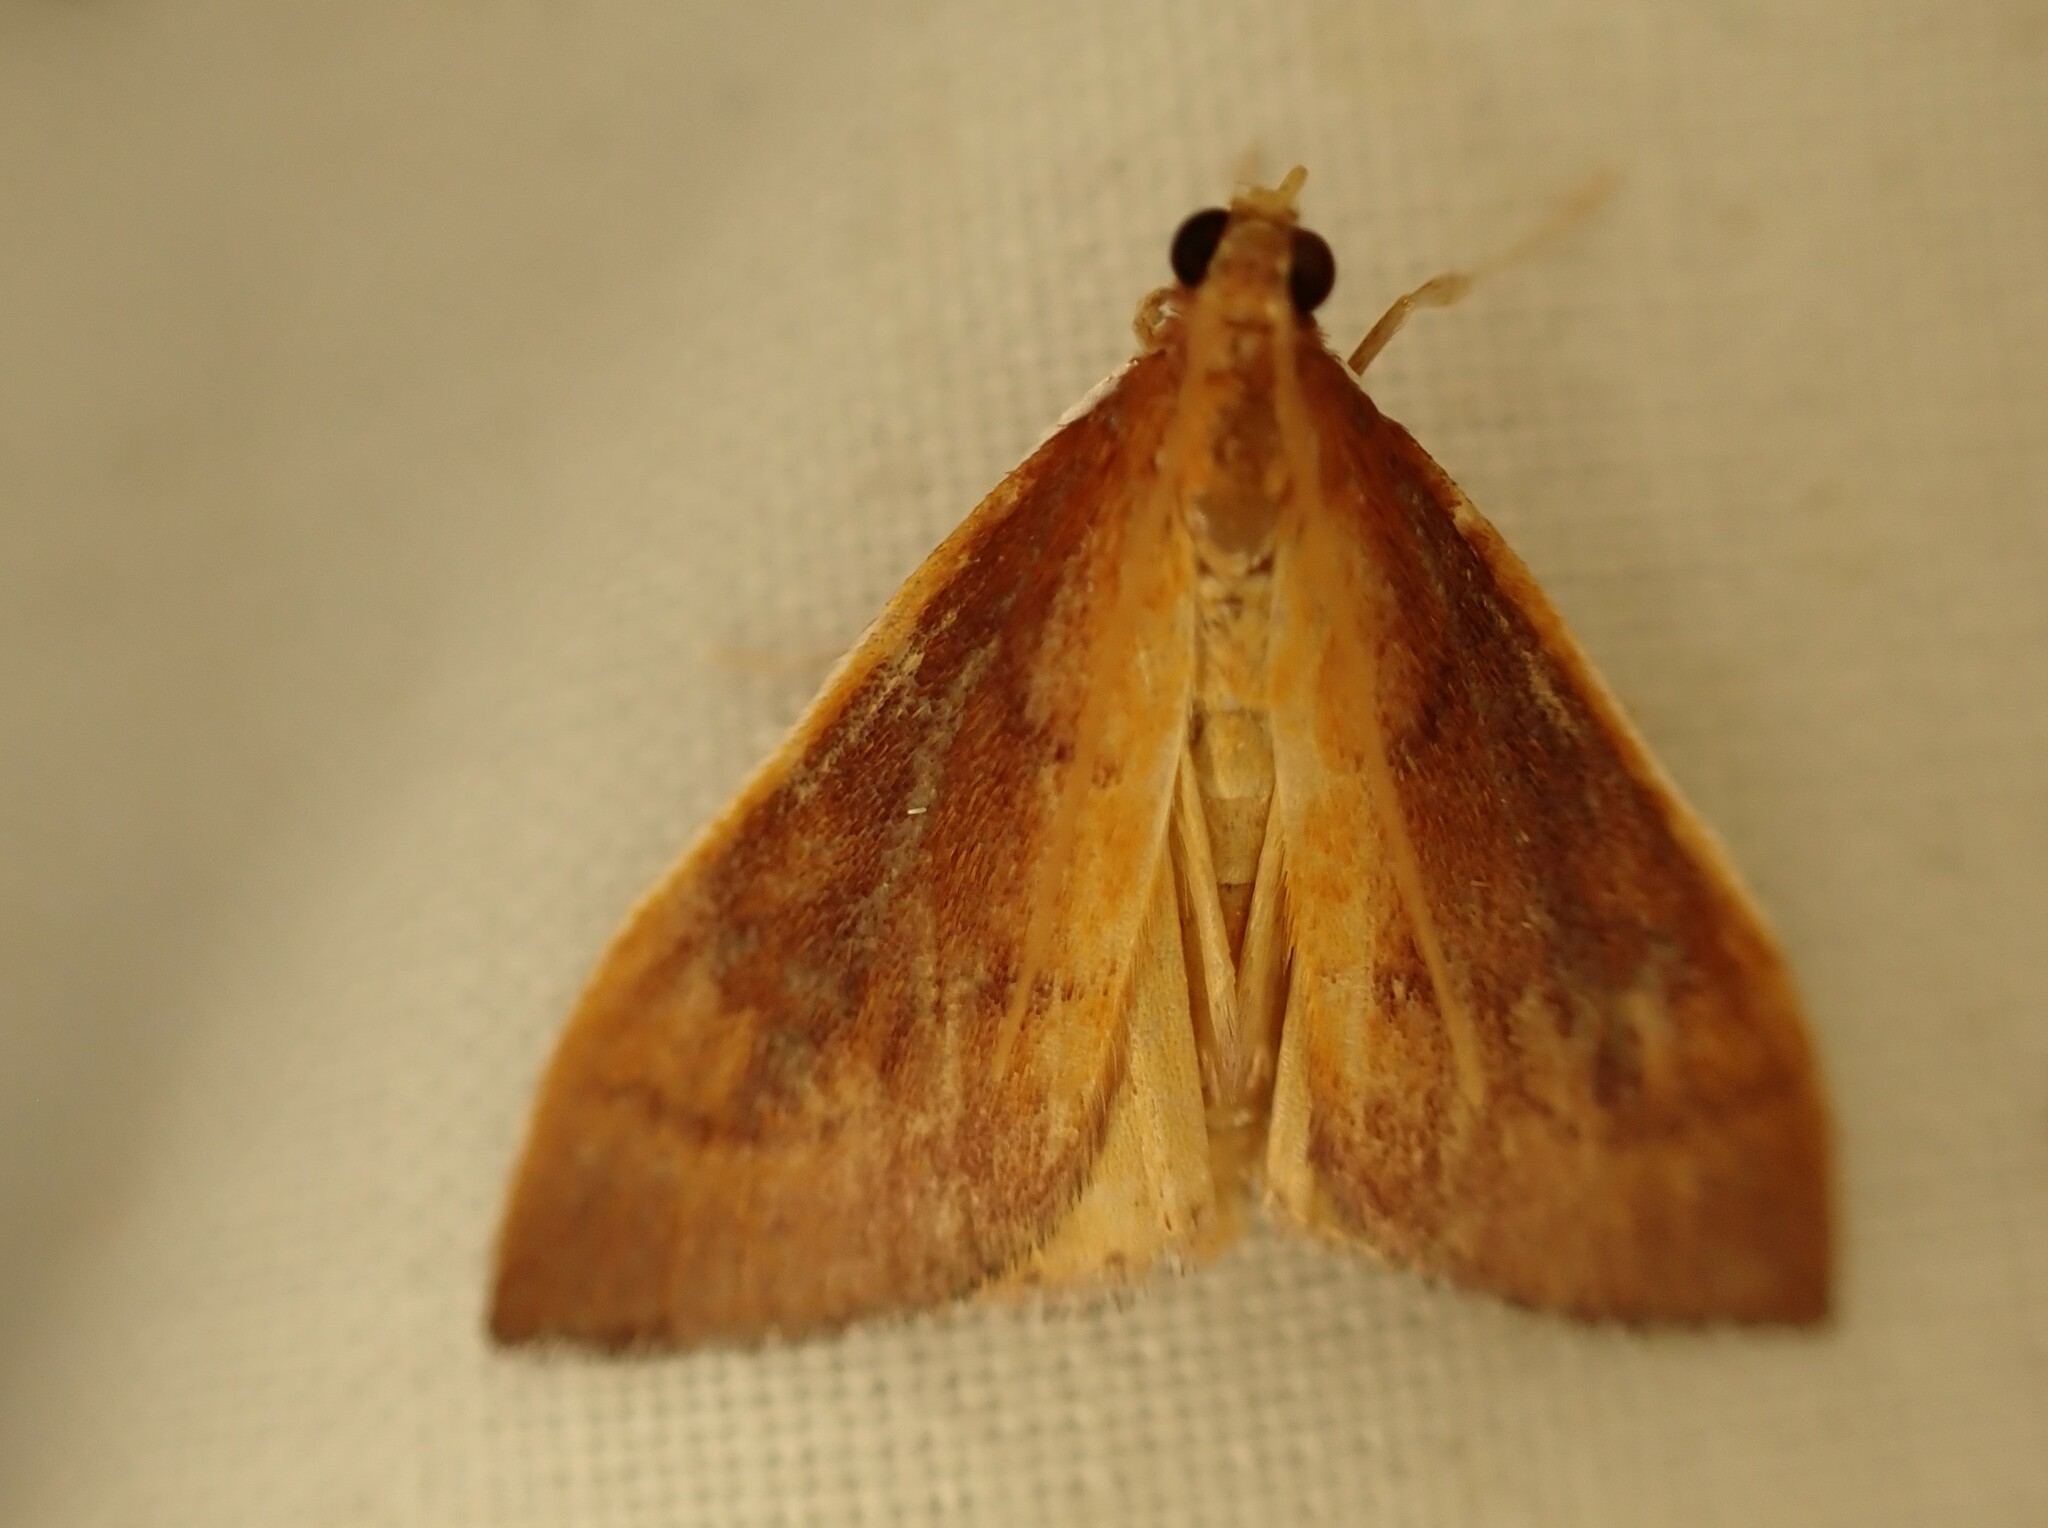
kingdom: Animalia
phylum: Arthropoda
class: Insecta
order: Lepidoptera
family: Crambidae
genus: Udea
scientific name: Udea Mnesictena flavidalis
